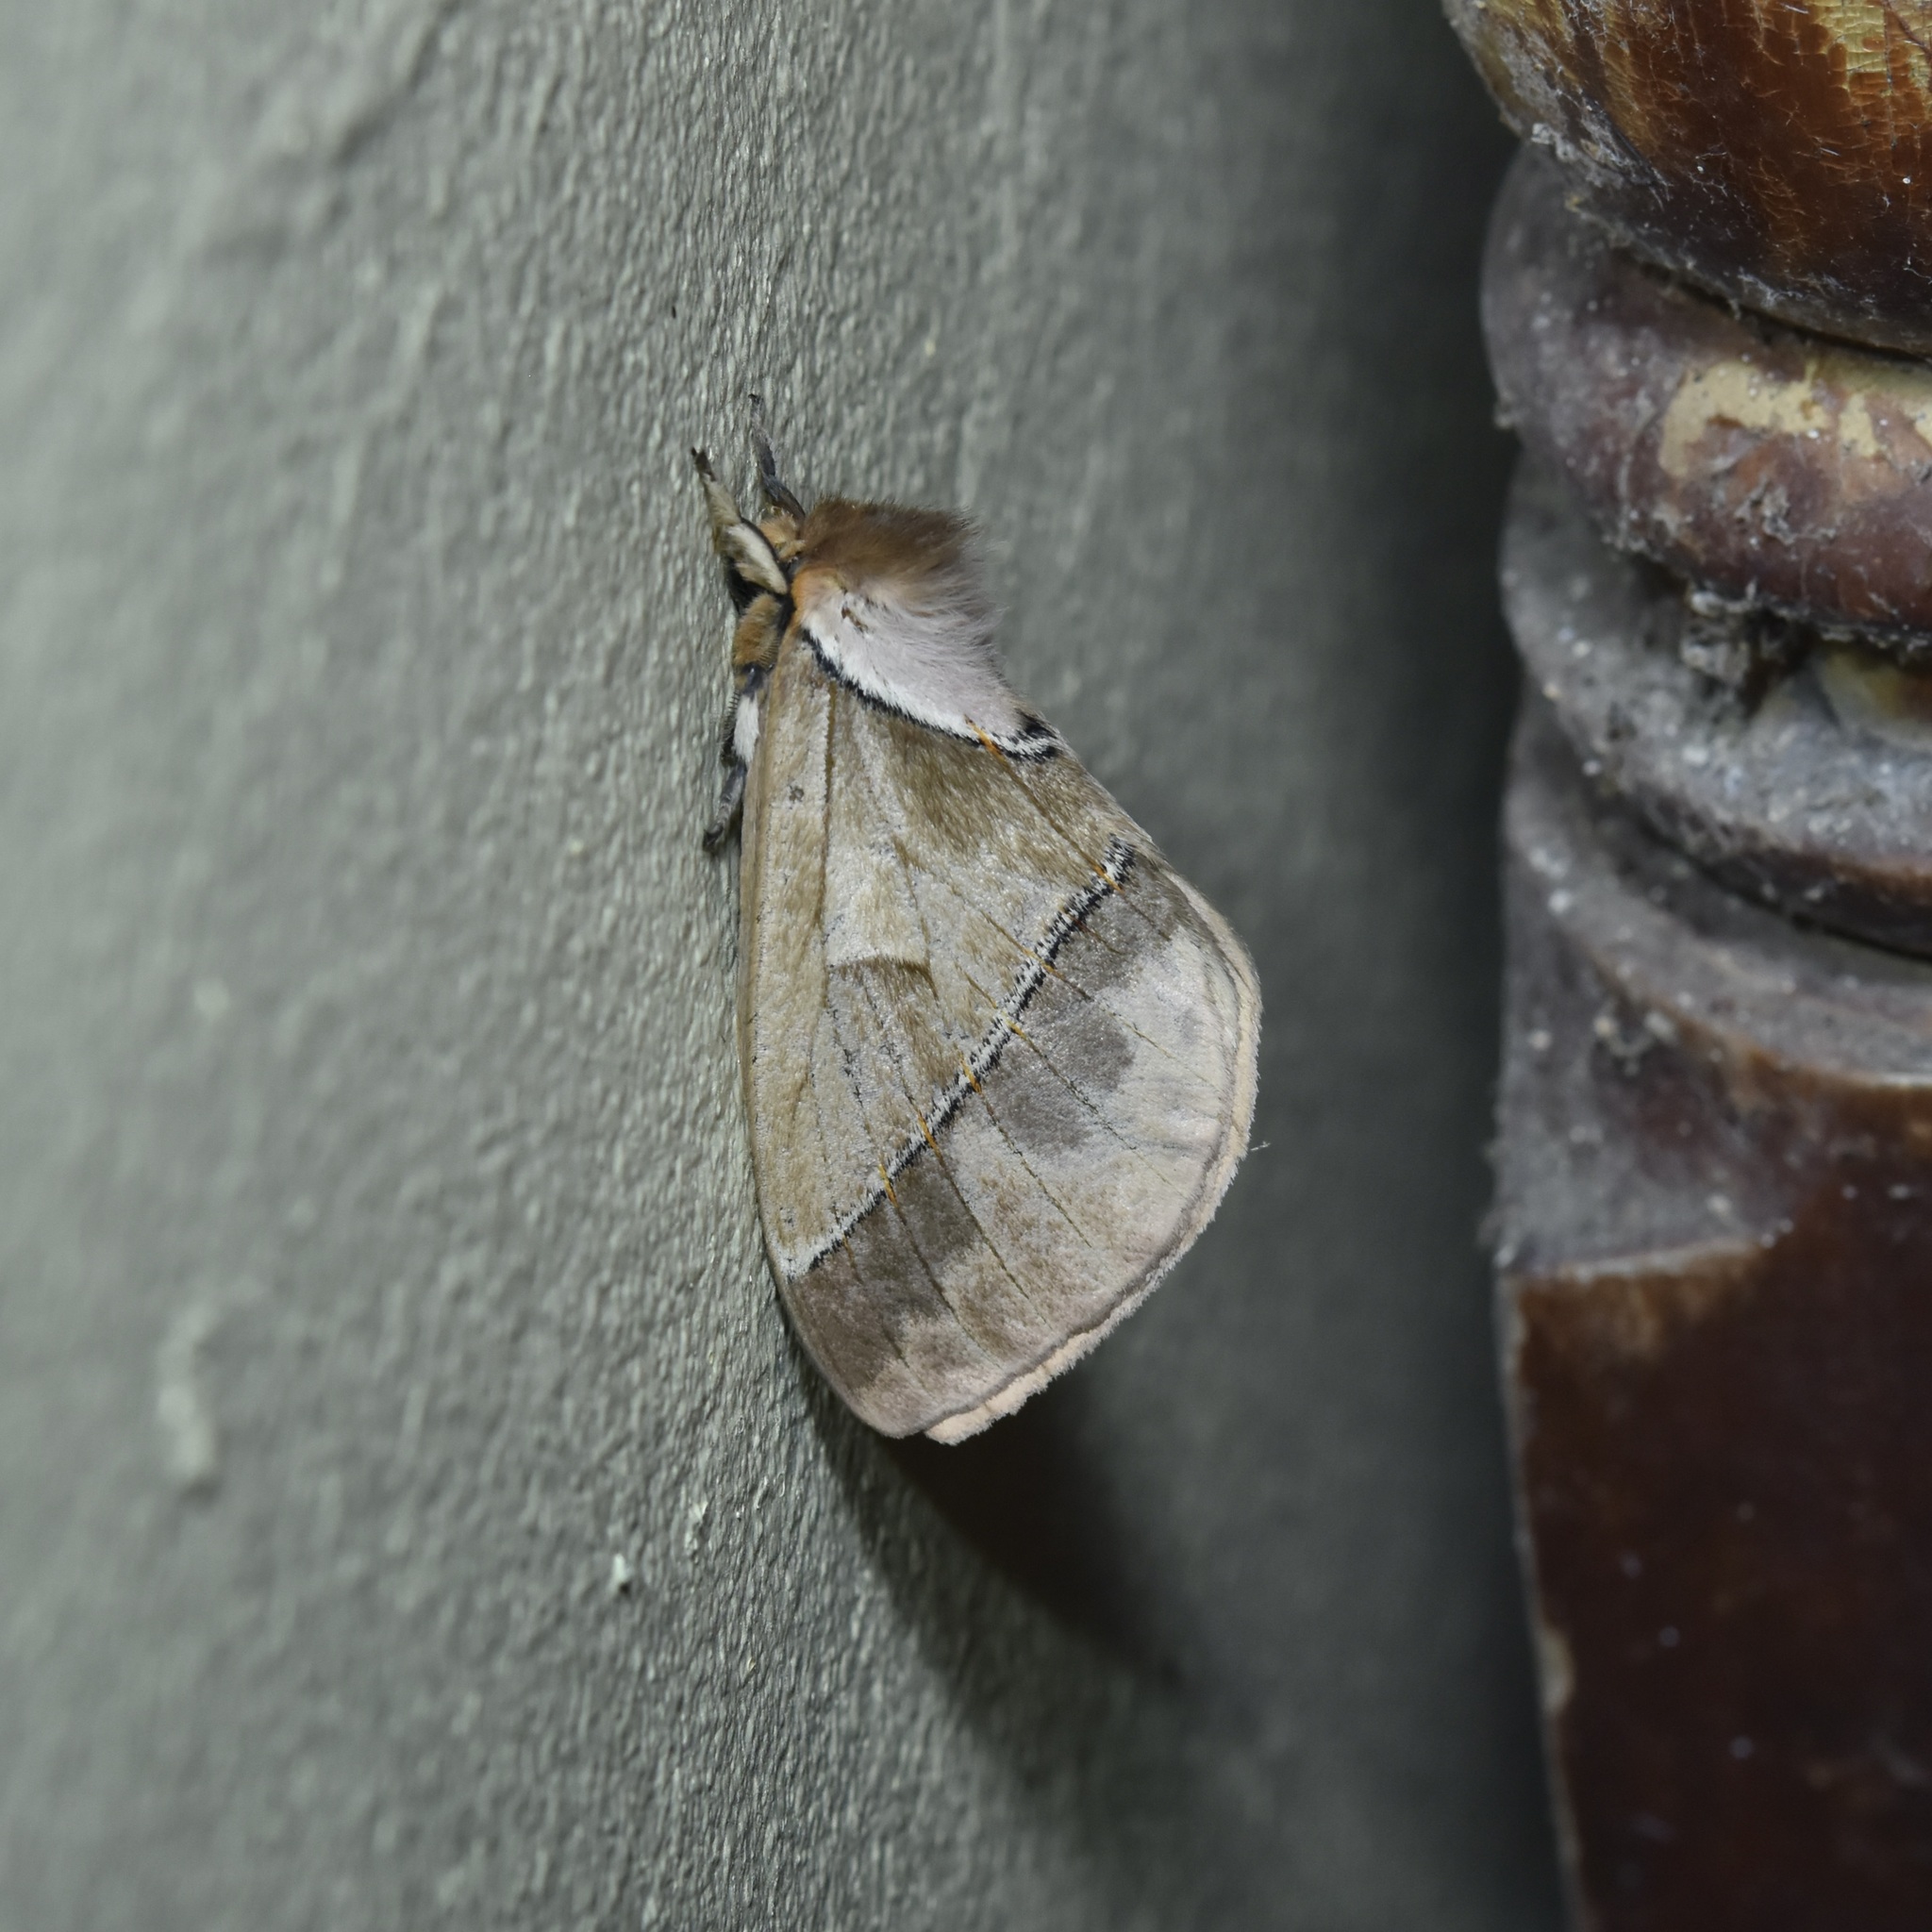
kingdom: Animalia
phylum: Arthropoda
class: Insecta
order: Lepidoptera
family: Saturniidae
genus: Pseudodirphia
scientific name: Pseudodirphia eumedide
